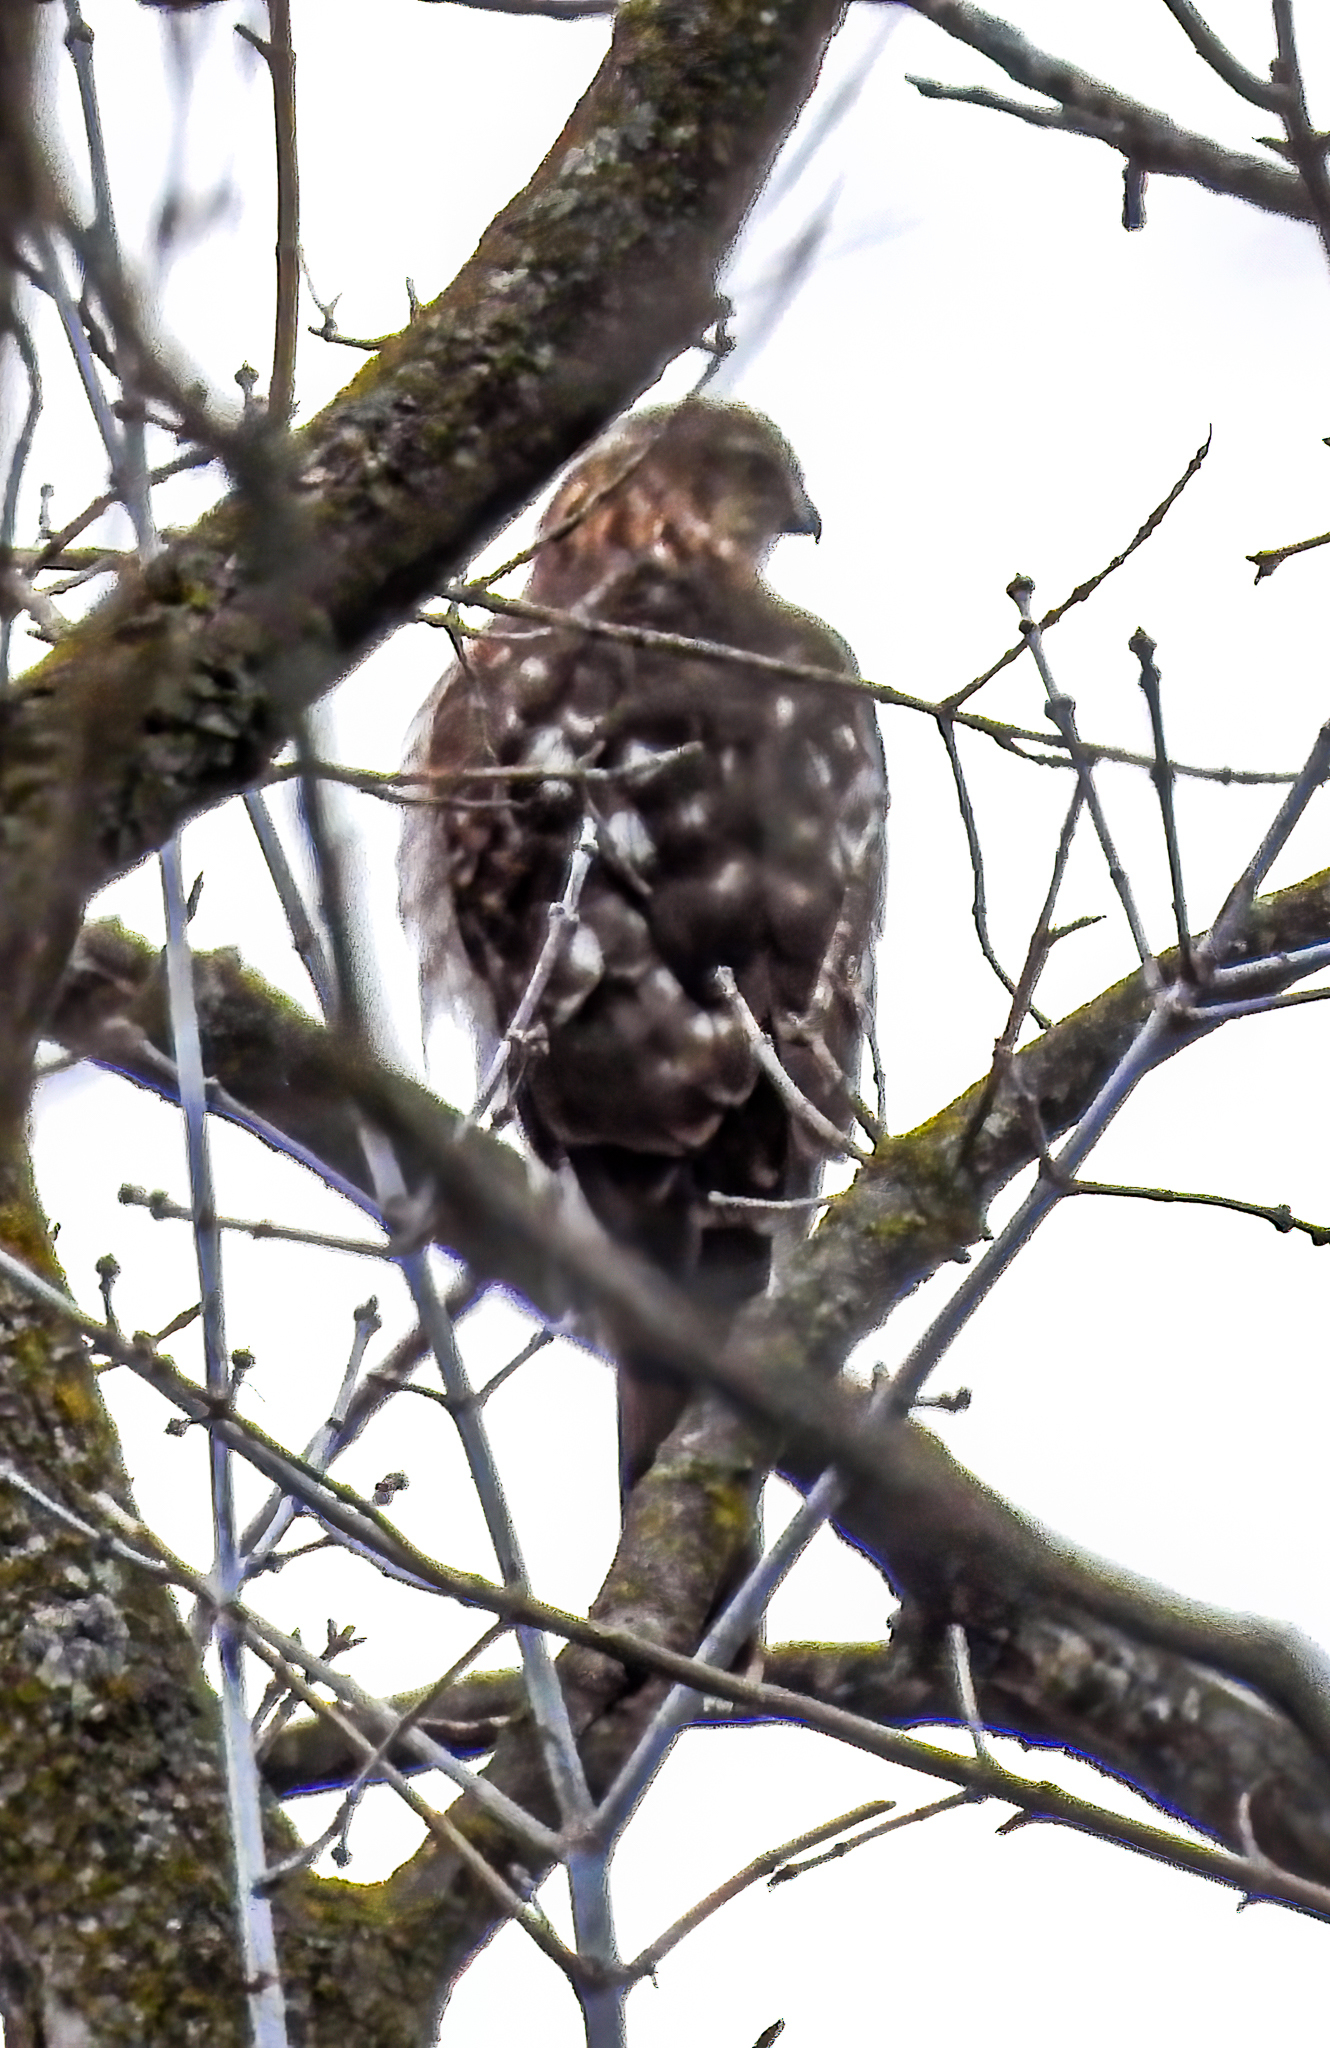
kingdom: Animalia
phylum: Chordata
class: Aves
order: Accipitriformes
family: Accipitridae
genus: Accipiter
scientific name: Accipiter cooperii
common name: Cooper's hawk
